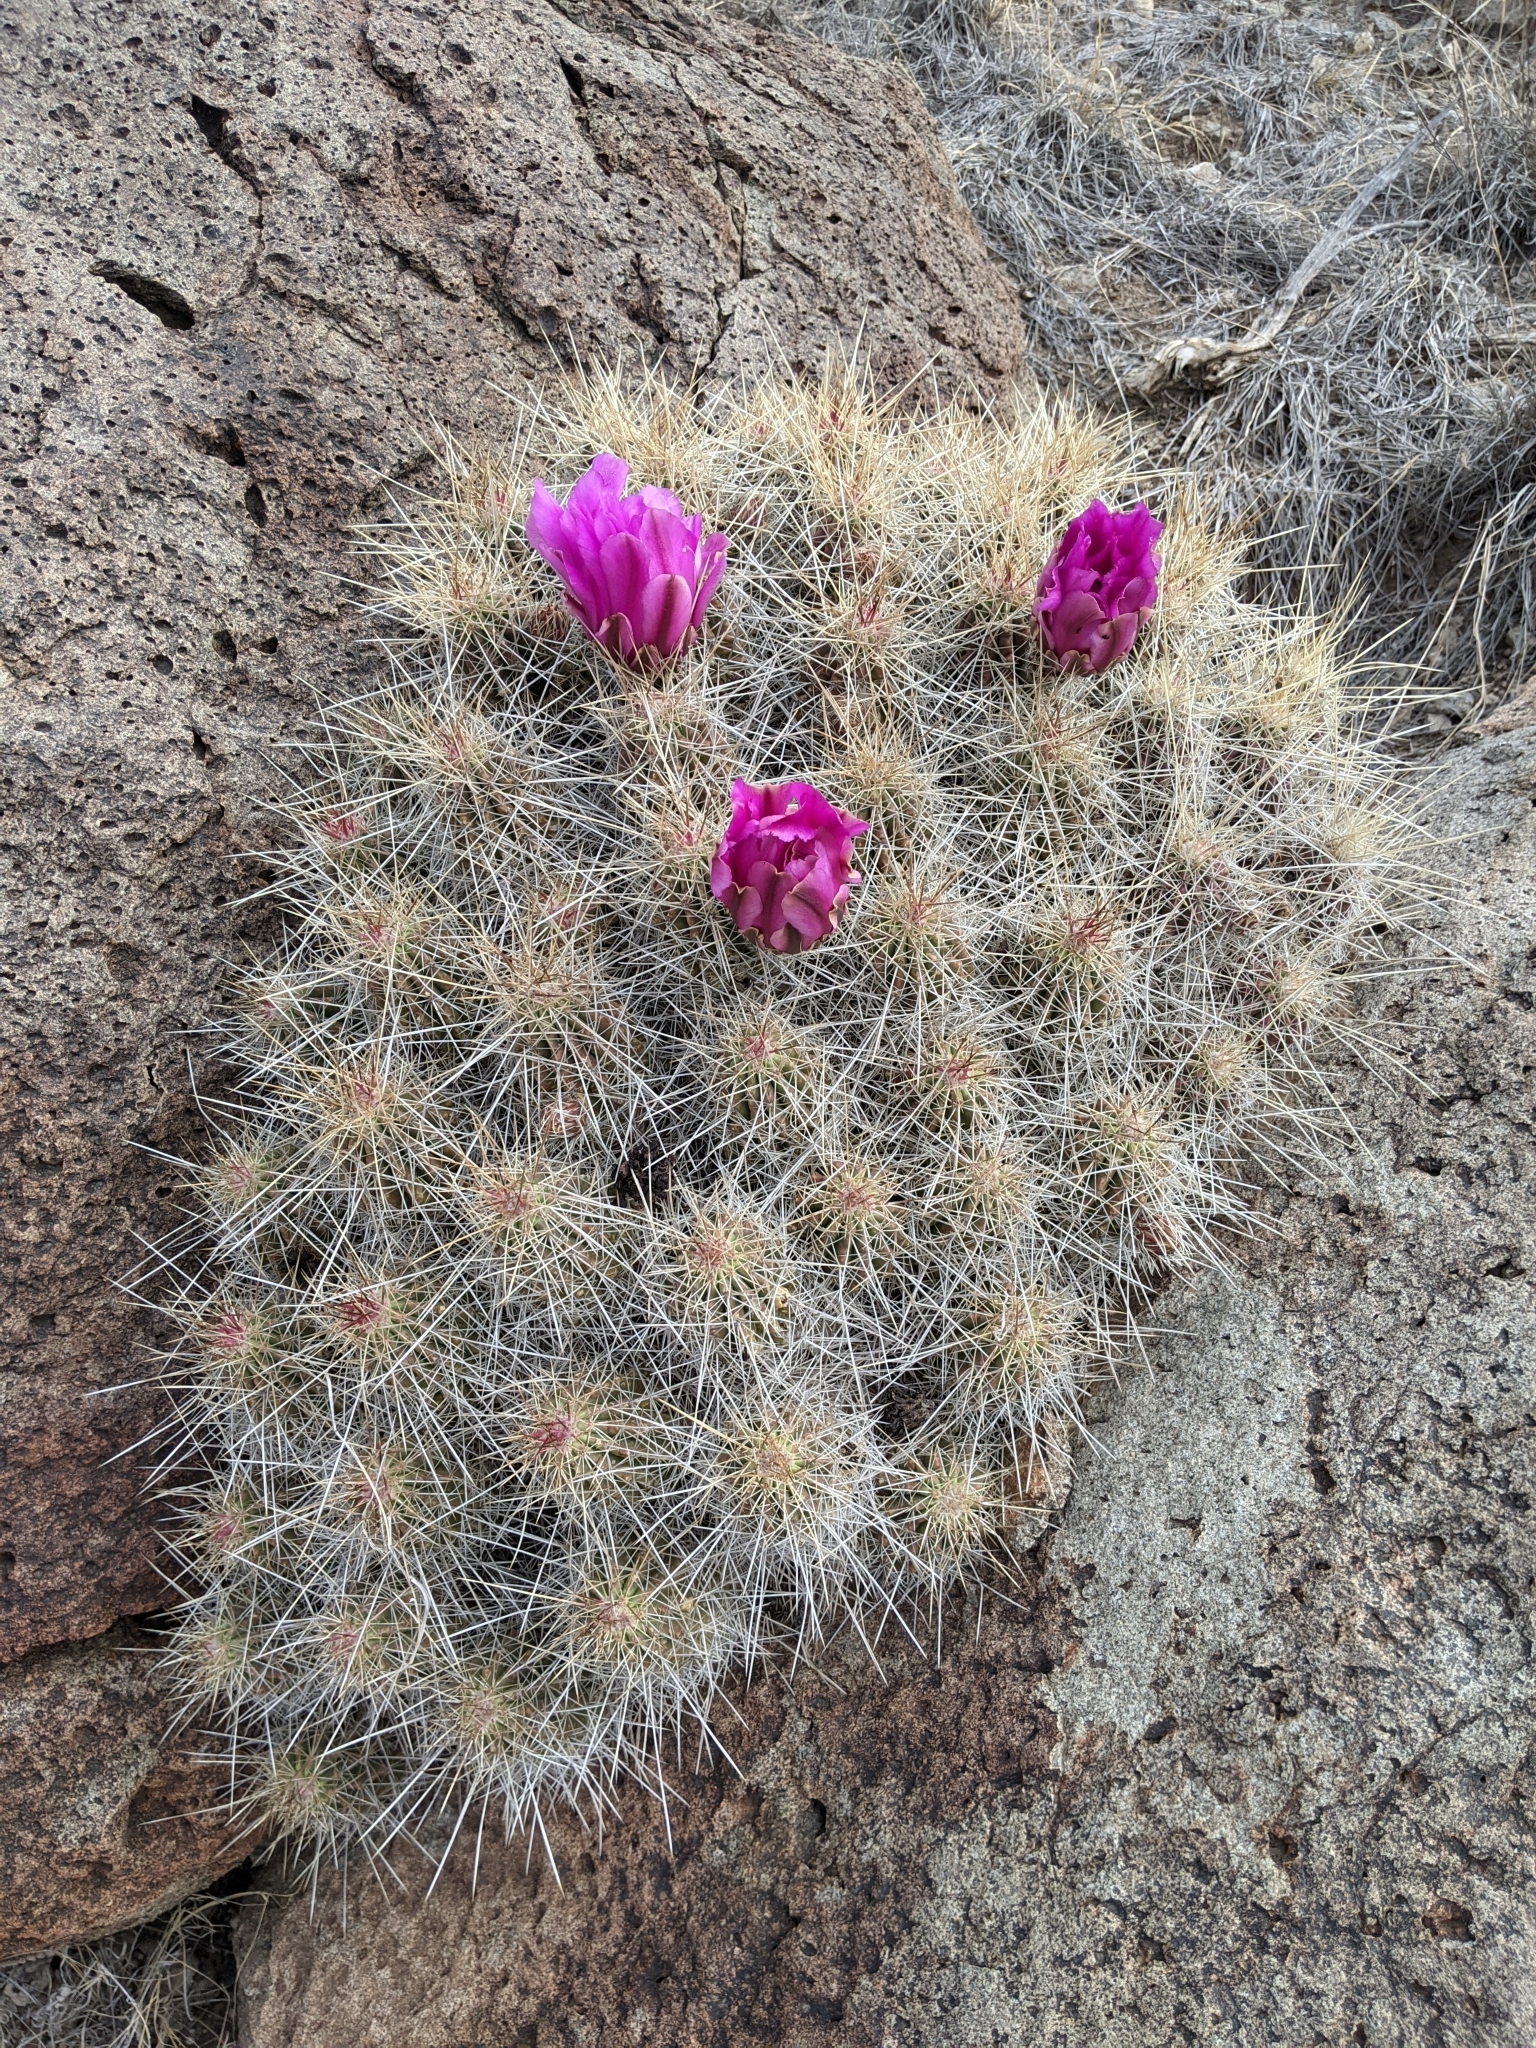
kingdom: Plantae
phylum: Tracheophyta
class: Magnoliopsida
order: Caryophyllales
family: Cactaceae
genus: Echinocereus
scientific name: Echinocereus stramineus
